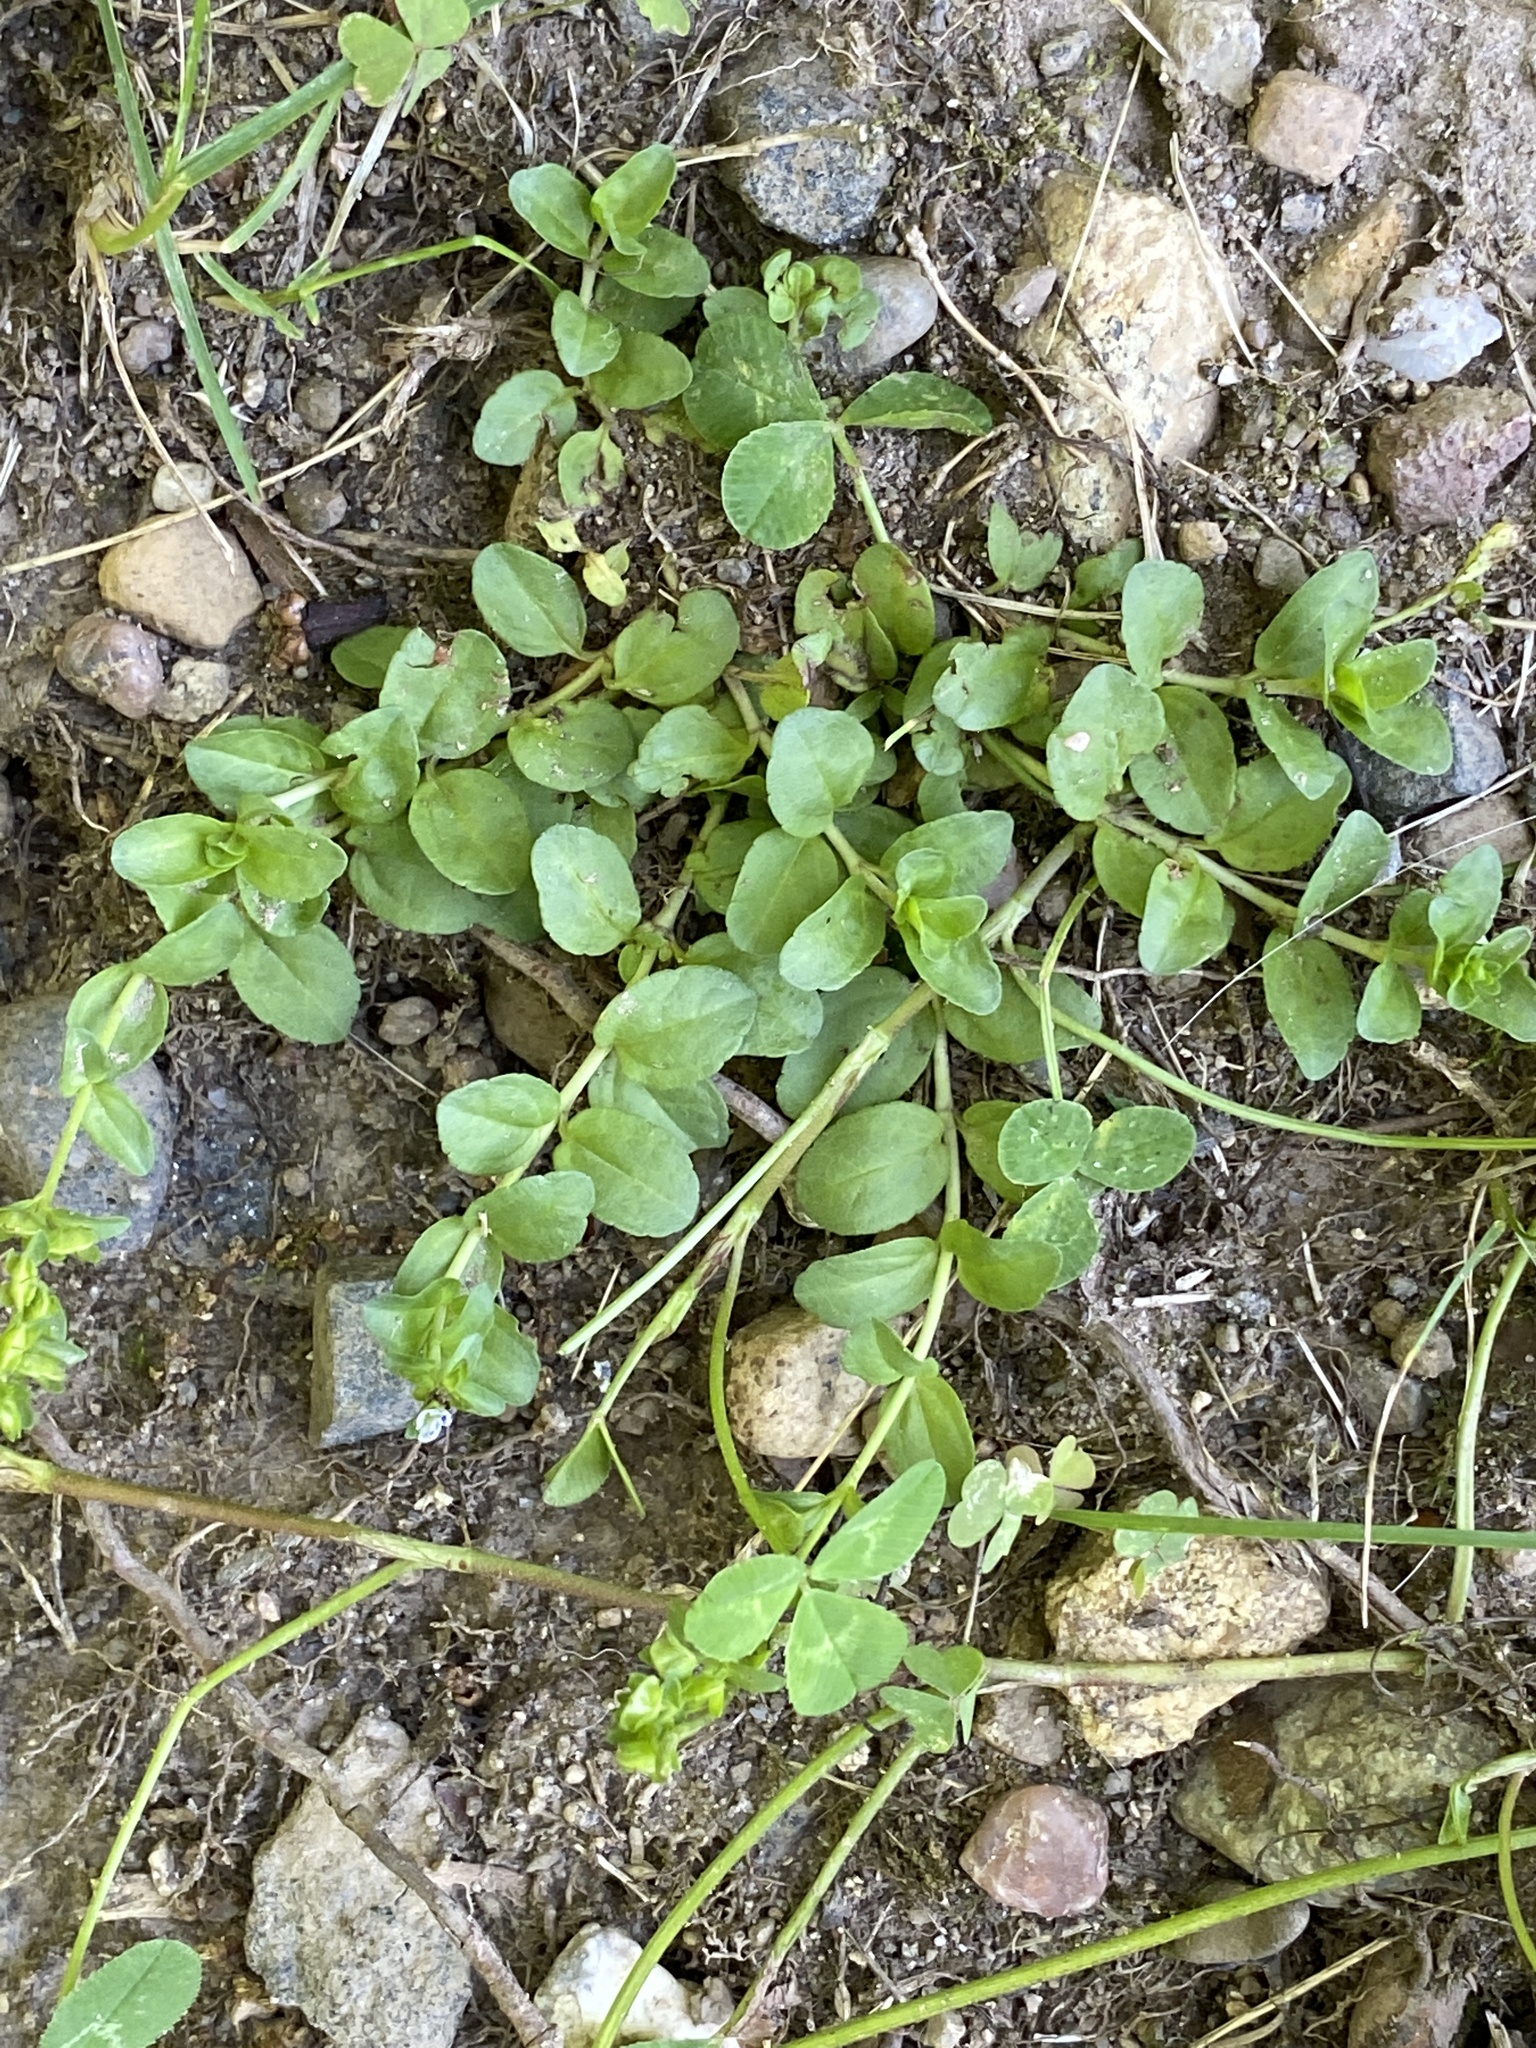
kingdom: Plantae
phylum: Tracheophyta
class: Magnoliopsida
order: Lamiales
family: Plantaginaceae
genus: Veronica
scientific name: Veronica serpyllifolia
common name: Thyme-leaved speedwell
